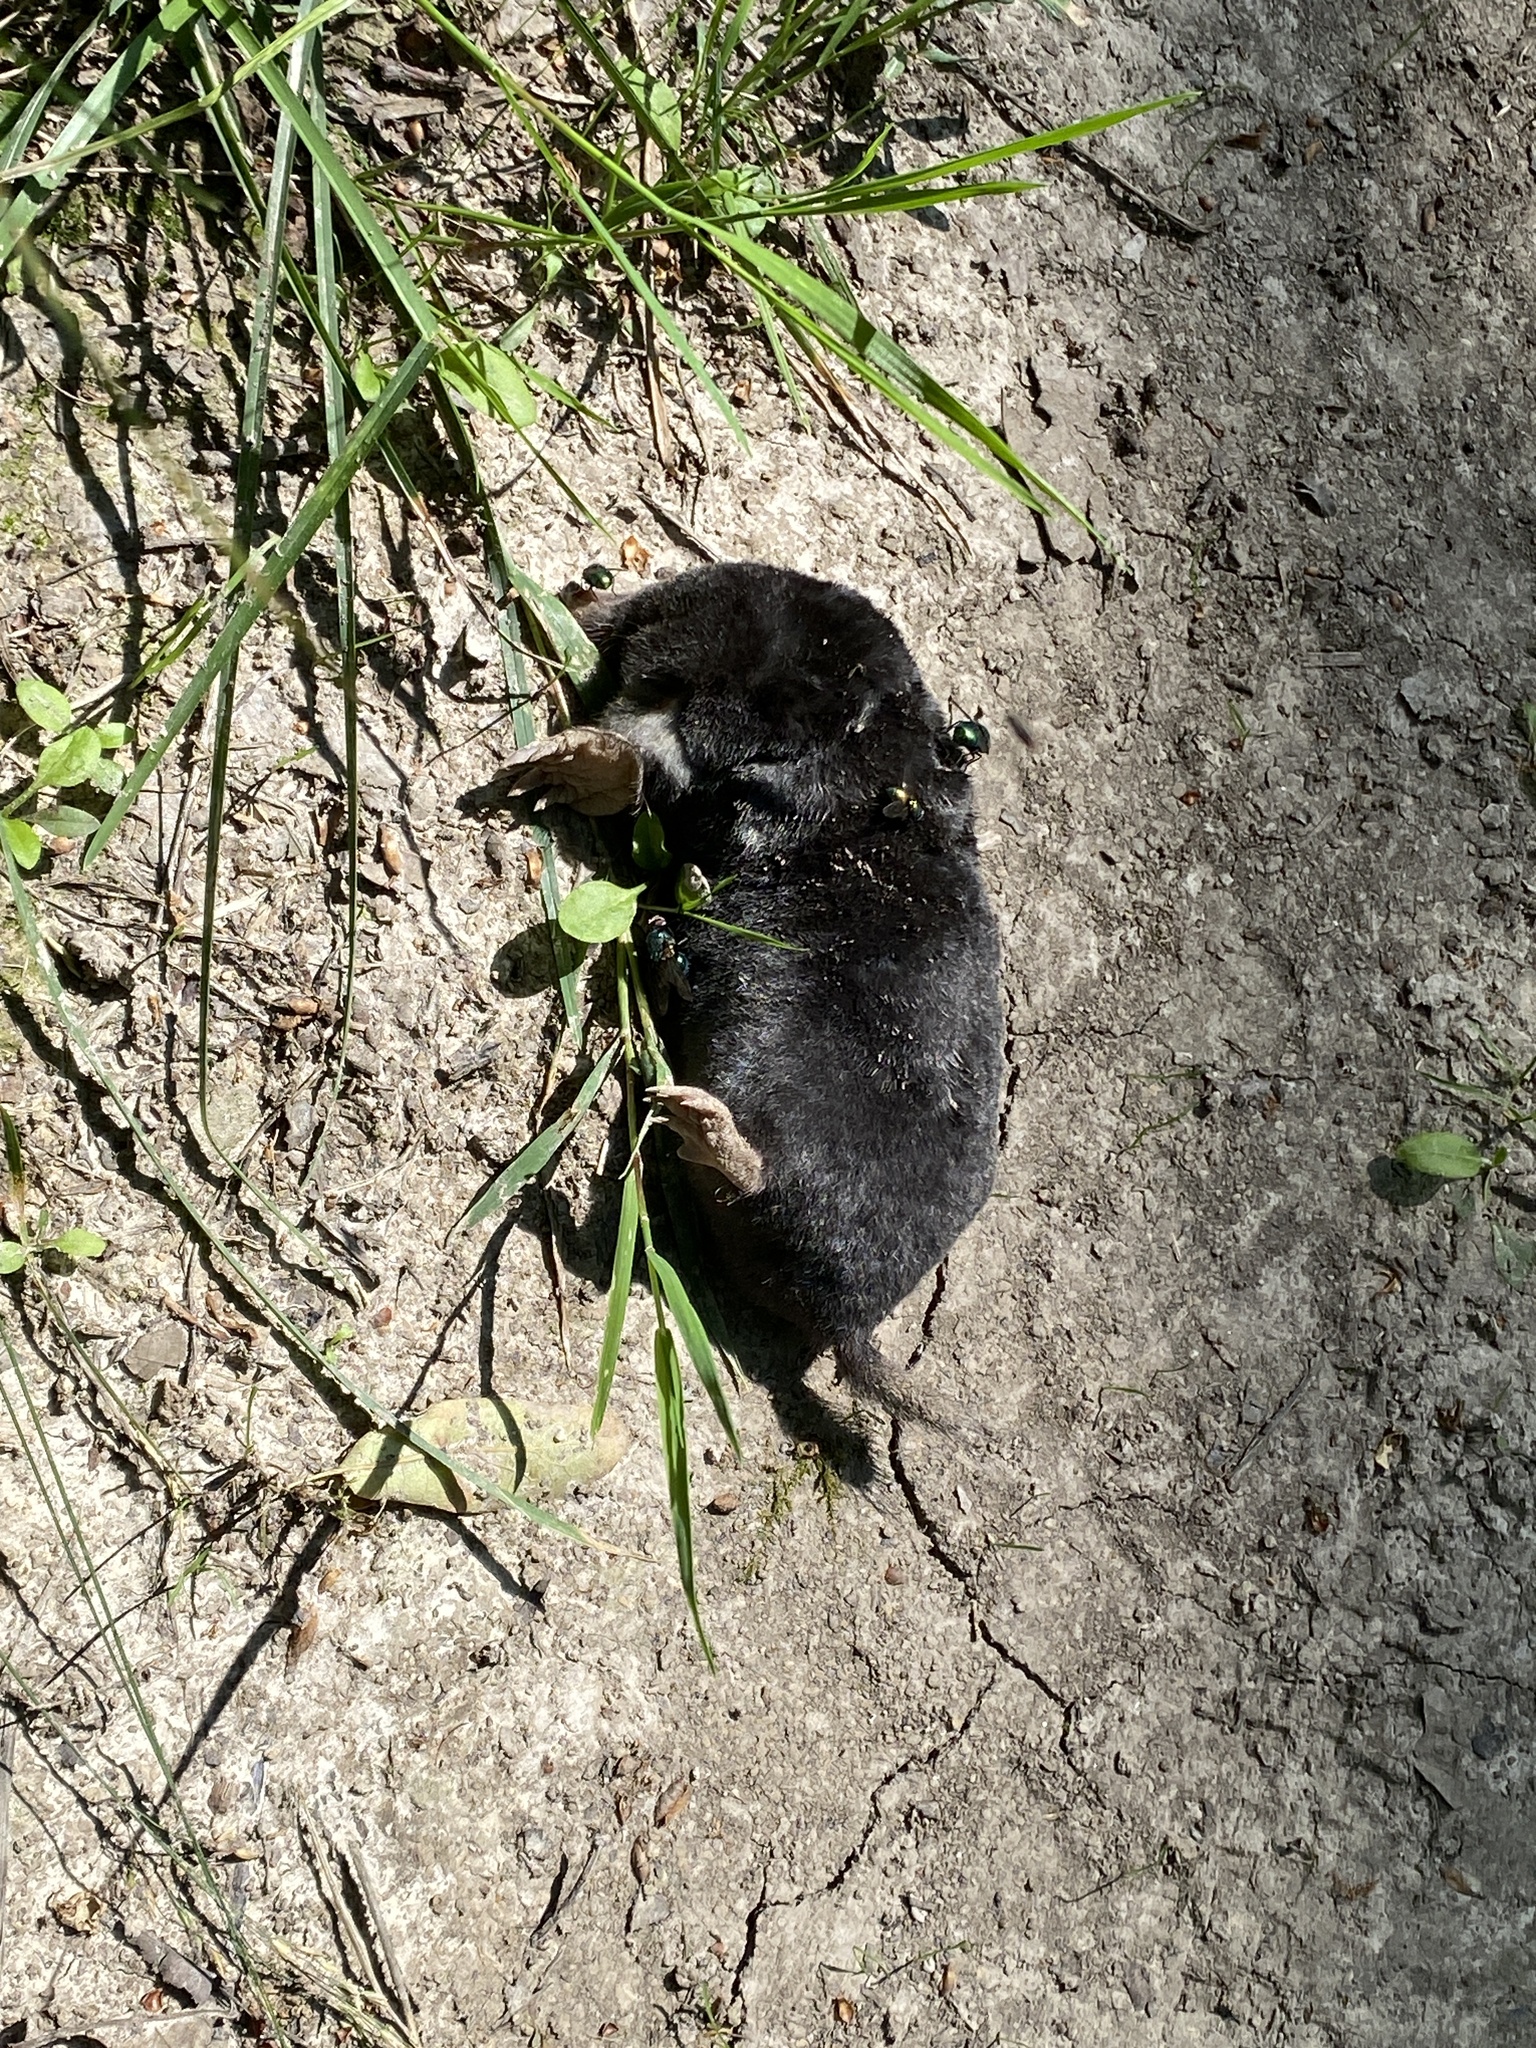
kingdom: Animalia
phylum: Chordata
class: Mammalia
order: Soricomorpha
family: Talpidae
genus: Talpa
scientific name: Talpa europaea
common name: European mole
